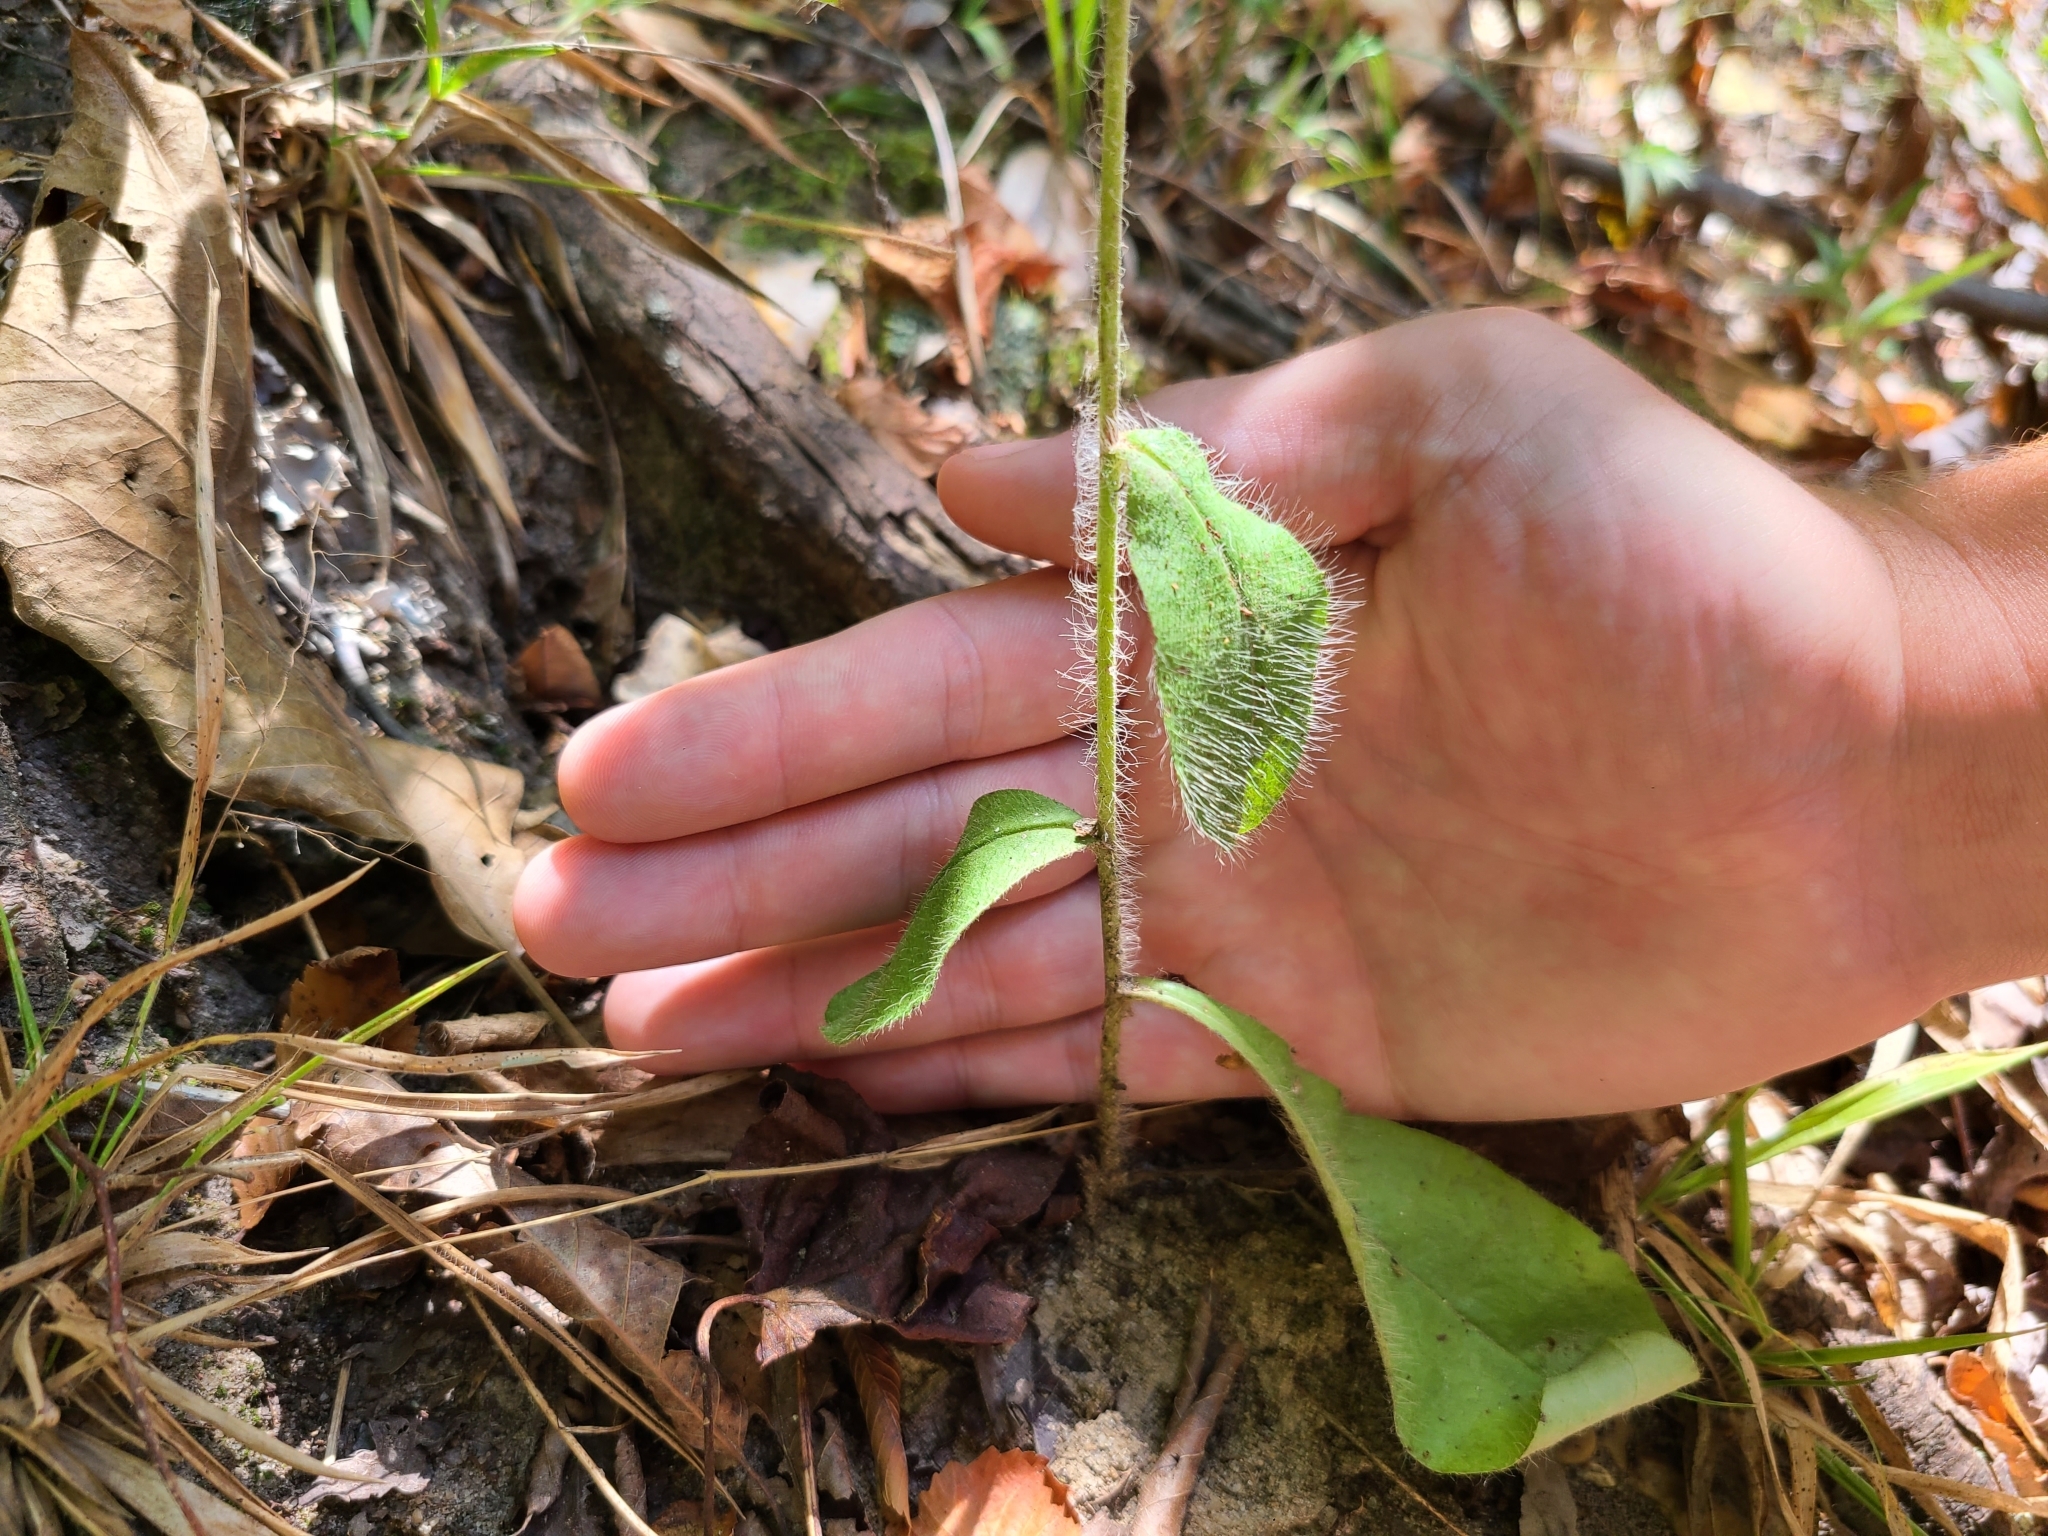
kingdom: Plantae
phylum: Tracheophyta
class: Magnoliopsida
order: Asterales
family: Asteraceae
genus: Hieracium
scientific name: Hieracium gronovii
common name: Beaked hawkweed
